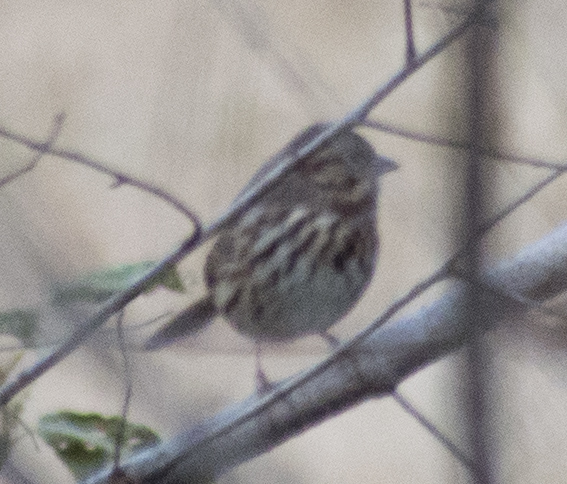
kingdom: Animalia
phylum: Chordata
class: Aves
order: Passeriformes
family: Passerellidae
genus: Melospiza
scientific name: Melospiza melodia
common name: Song sparrow
